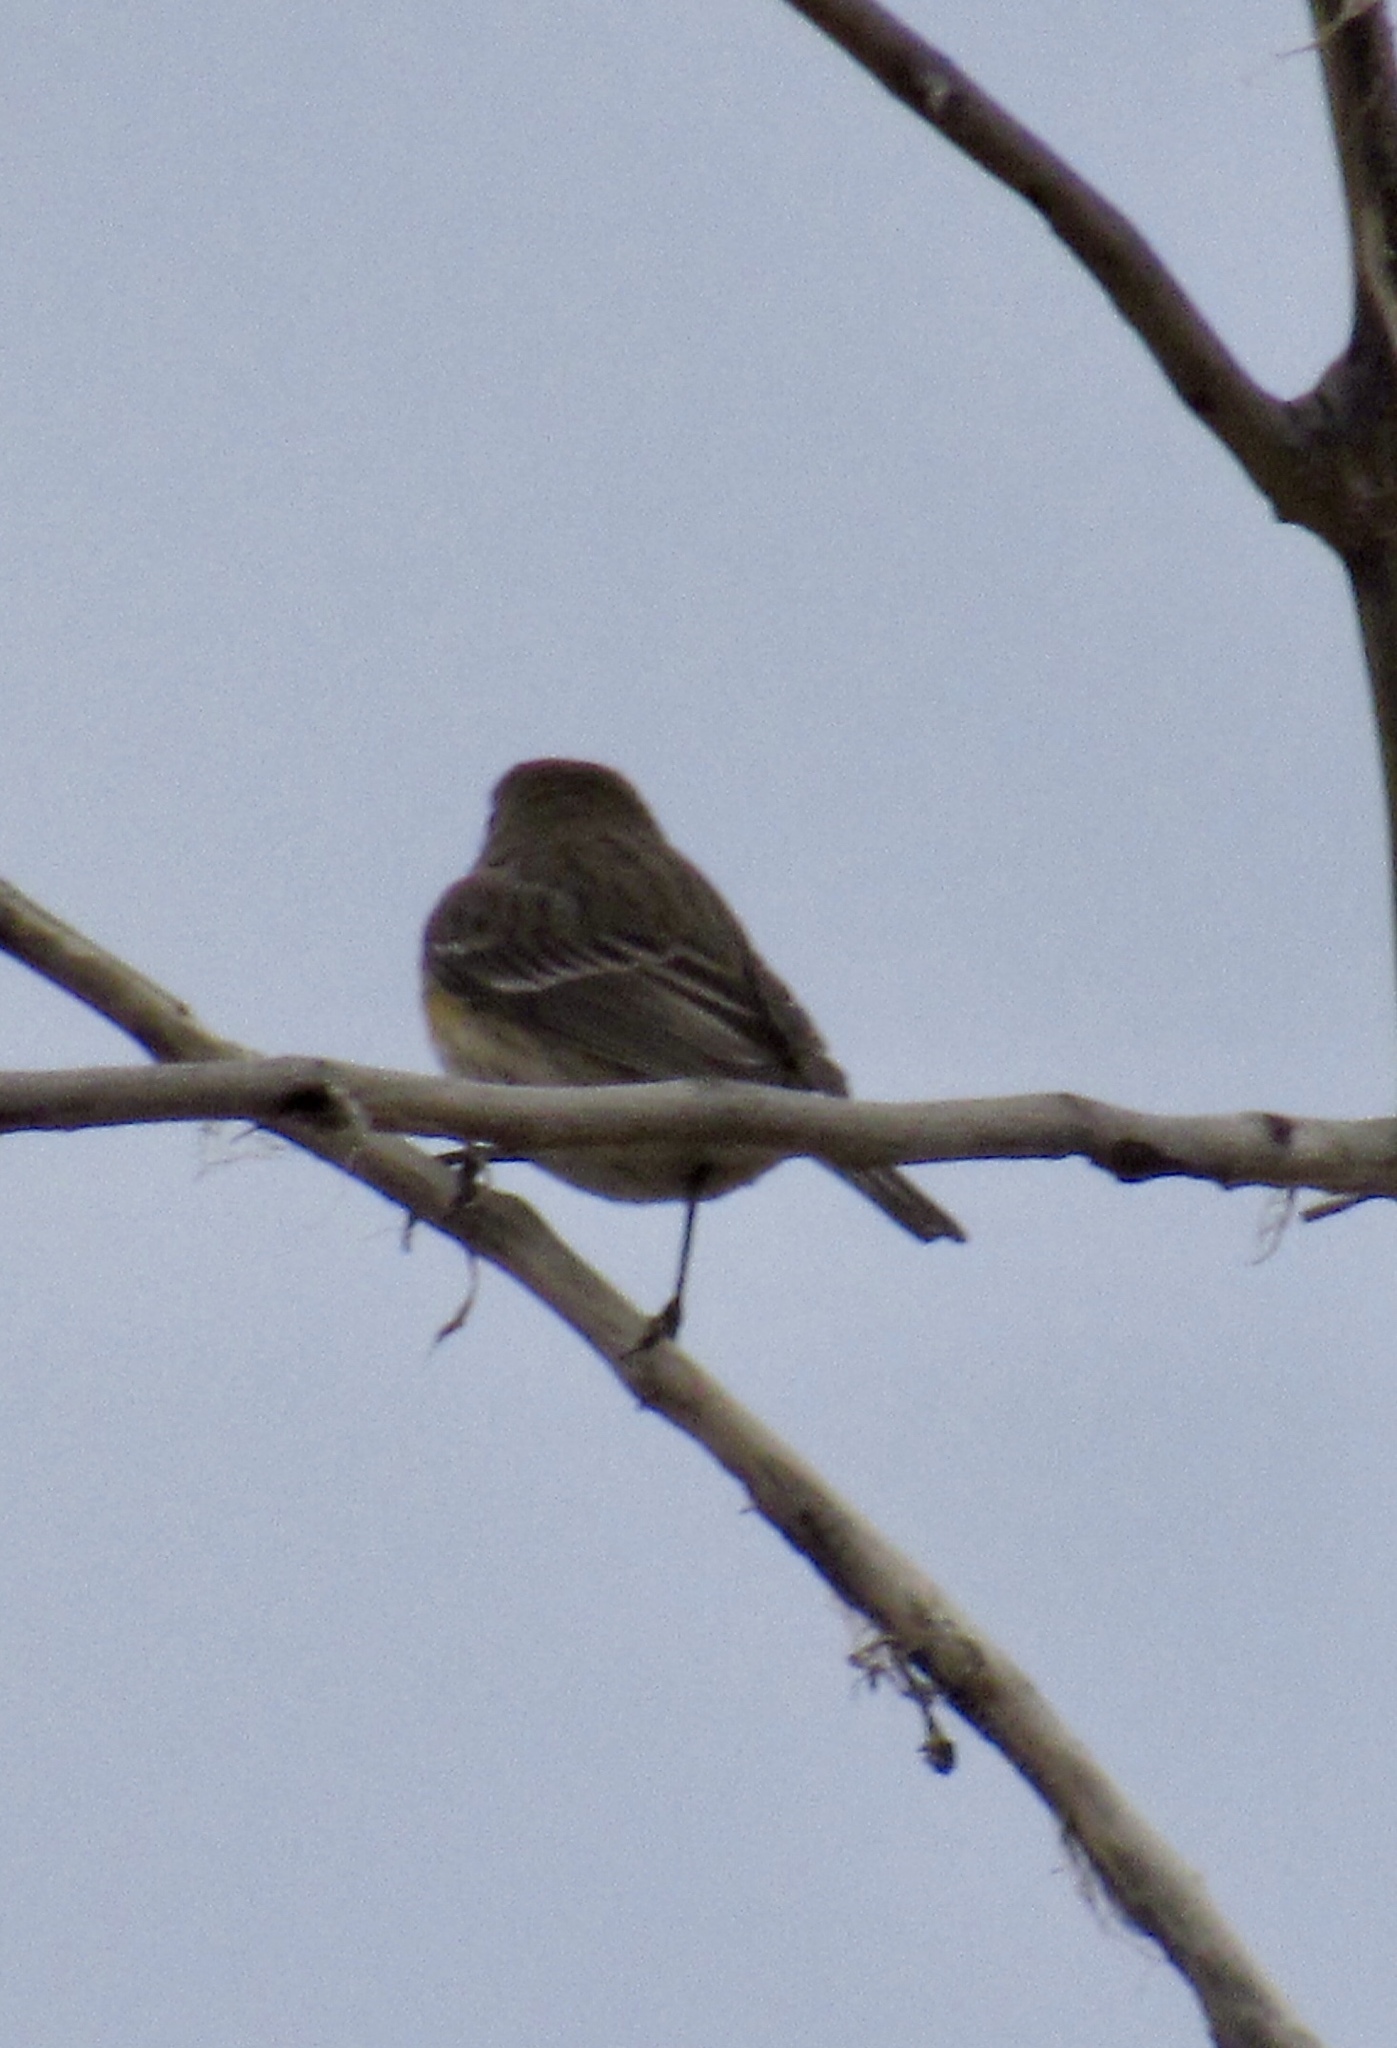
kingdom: Animalia
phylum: Chordata
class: Aves
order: Passeriformes
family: Parulidae
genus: Setophaga
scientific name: Setophaga coronata
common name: Myrtle warbler
